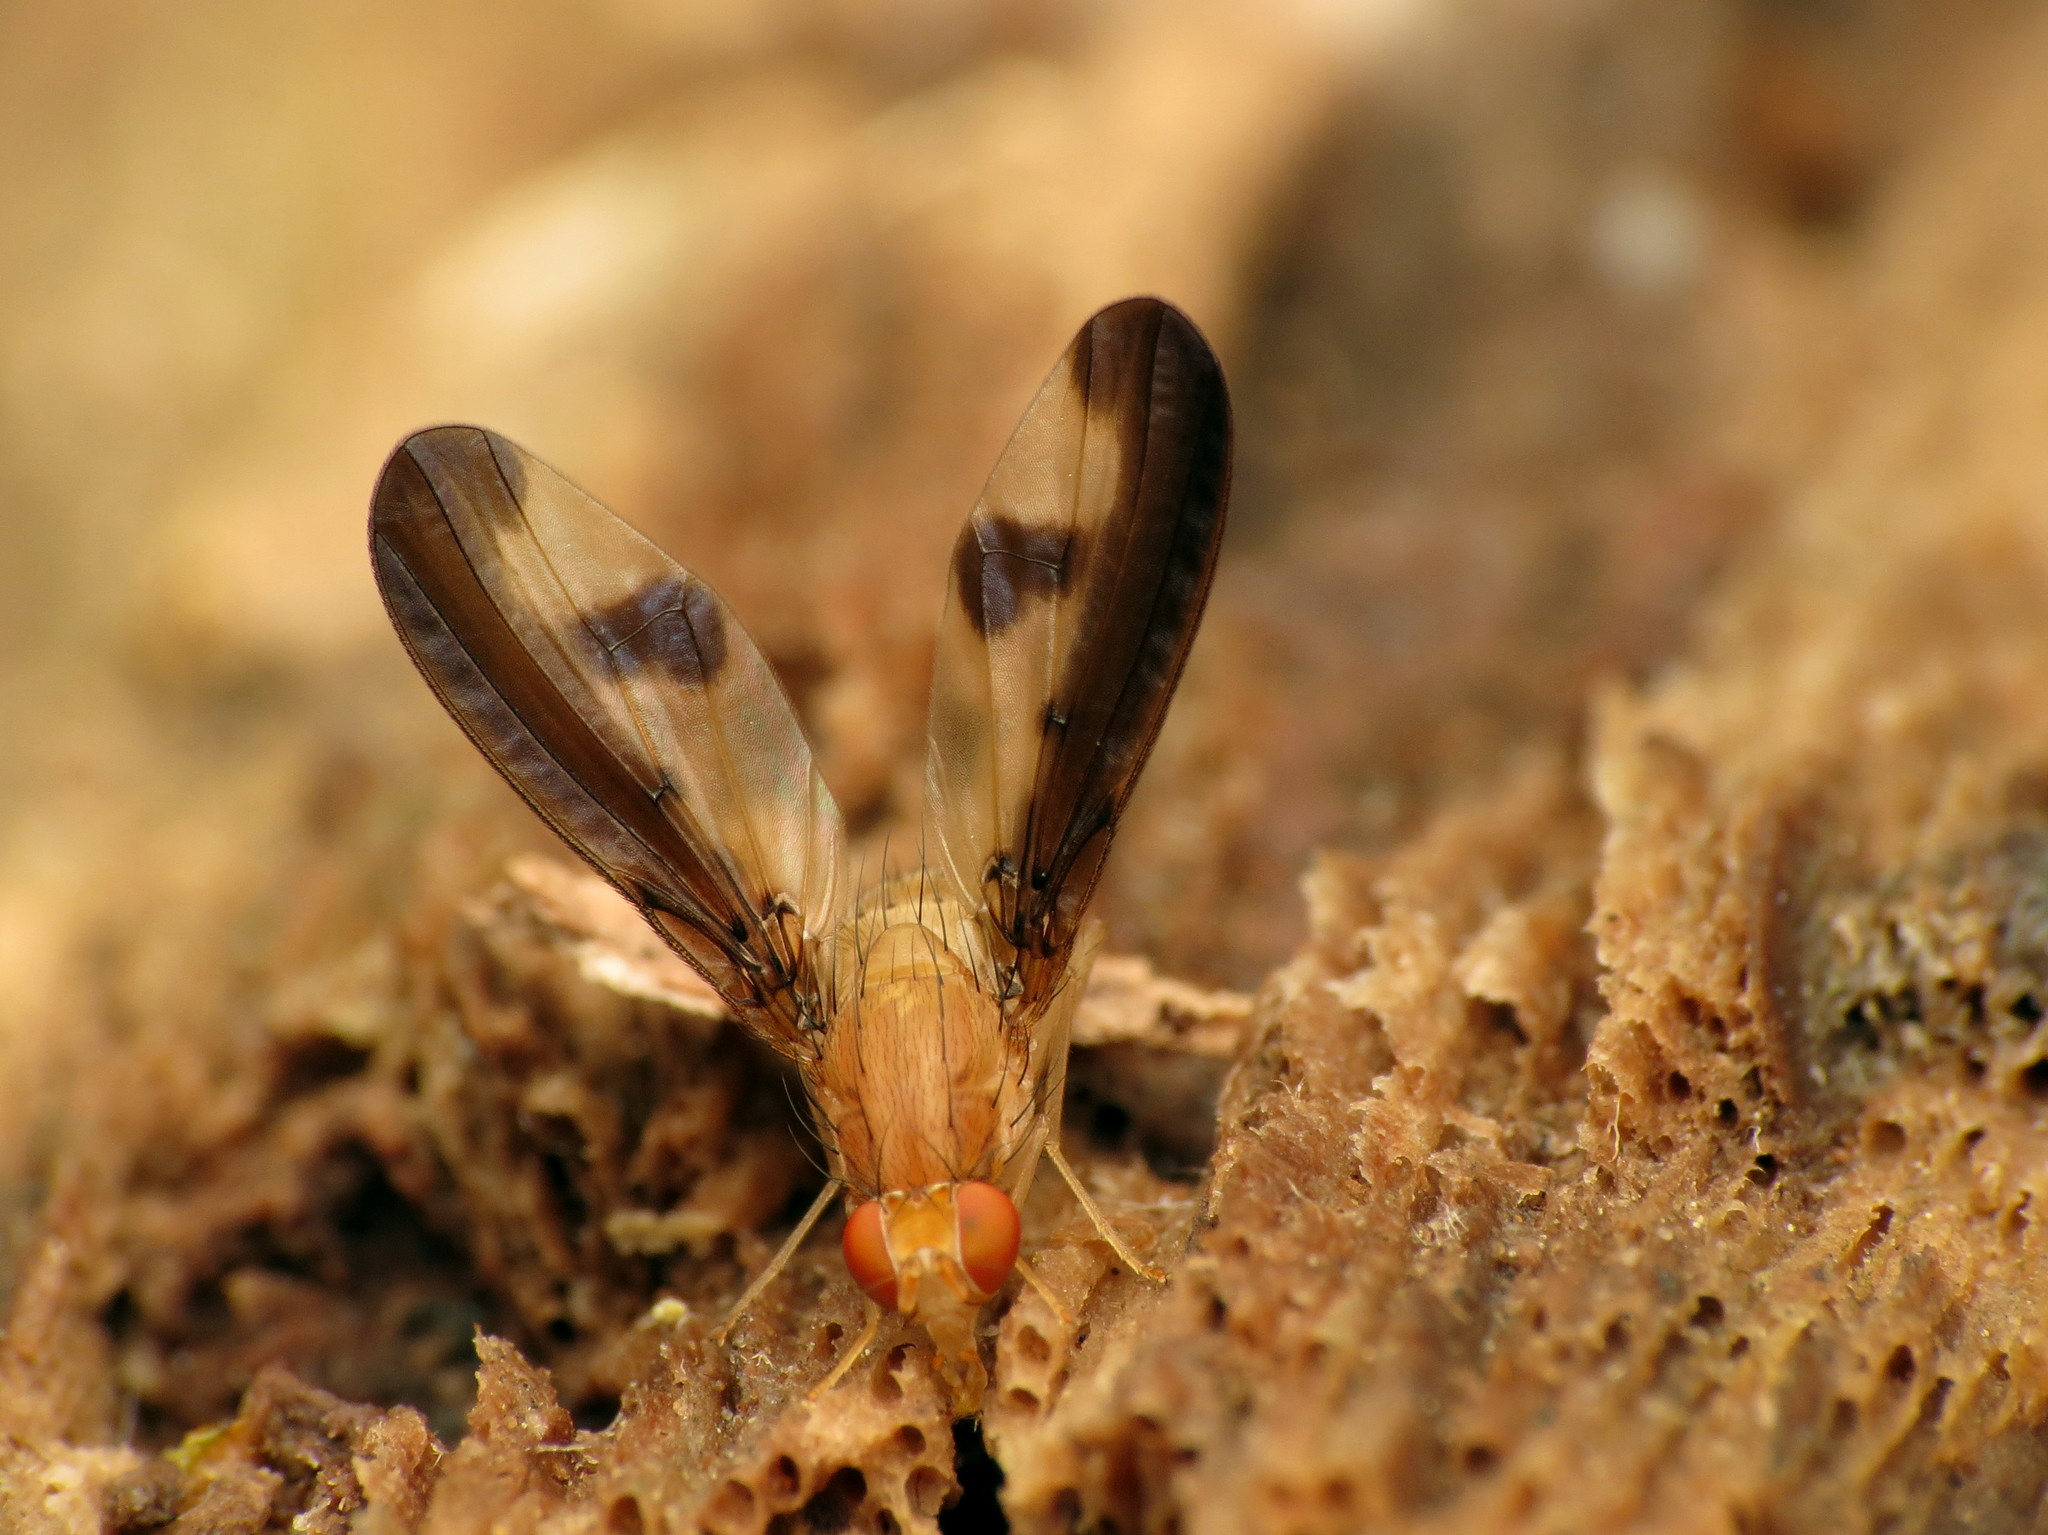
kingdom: Animalia
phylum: Arthropoda
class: Insecta
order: Diptera
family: Pallopteridae
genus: Toxonevra
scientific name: Toxonevra superba
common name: Antlered flutter fly
